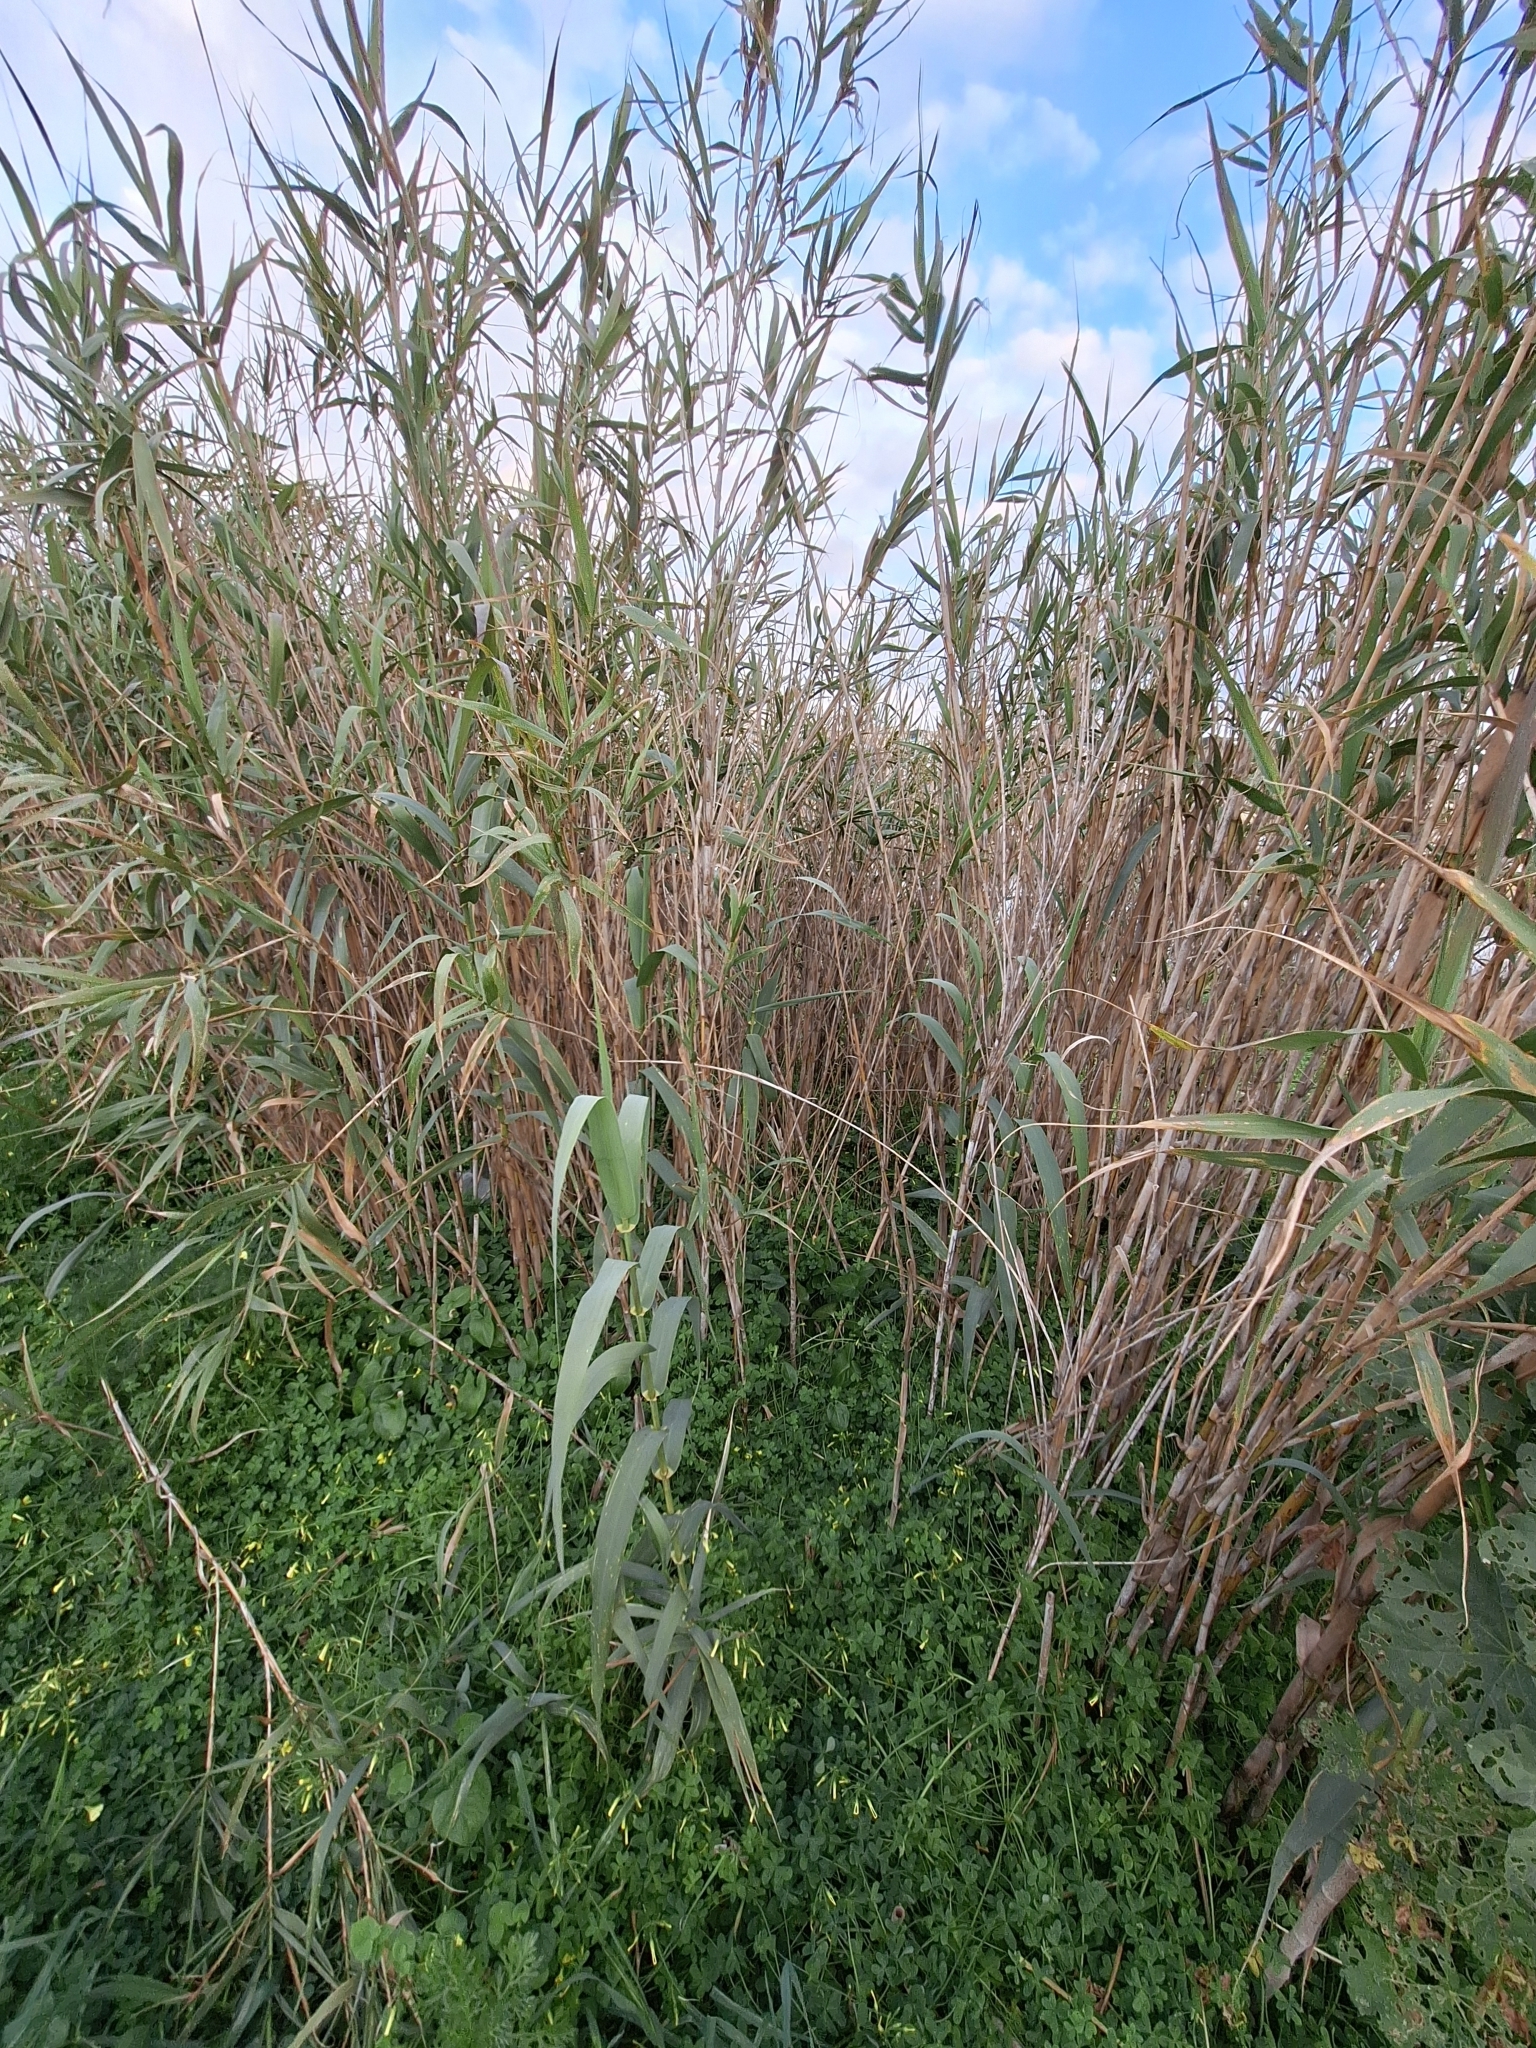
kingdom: Plantae
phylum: Tracheophyta
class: Liliopsida
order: Poales
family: Poaceae
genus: Arundo
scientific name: Arundo donax
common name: Giant reed
